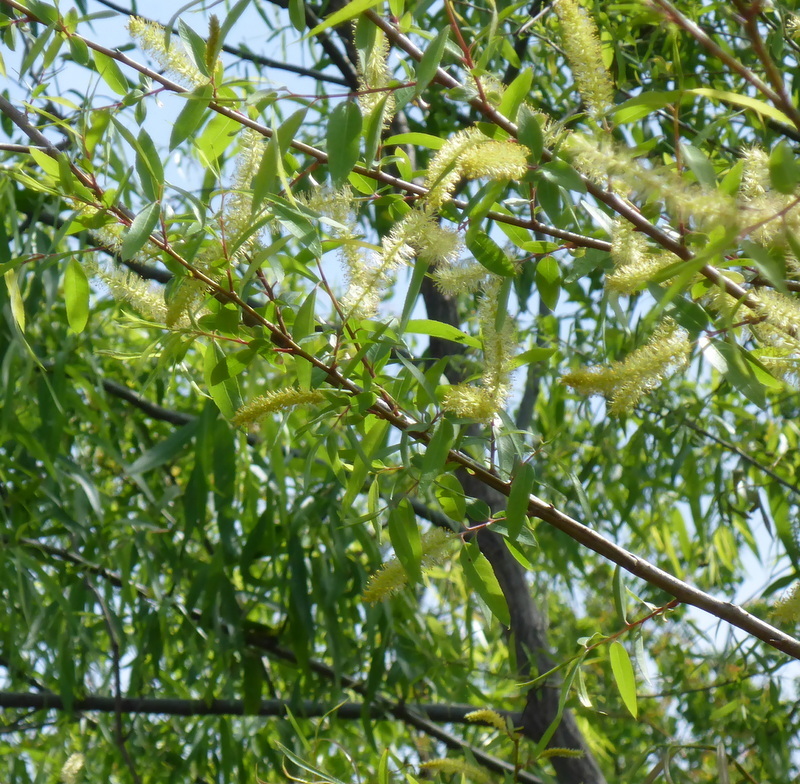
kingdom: Plantae
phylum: Tracheophyta
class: Magnoliopsida
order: Malpighiales
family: Salicaceae
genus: Salix
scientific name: Salix caroliniana
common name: Carolina willow
